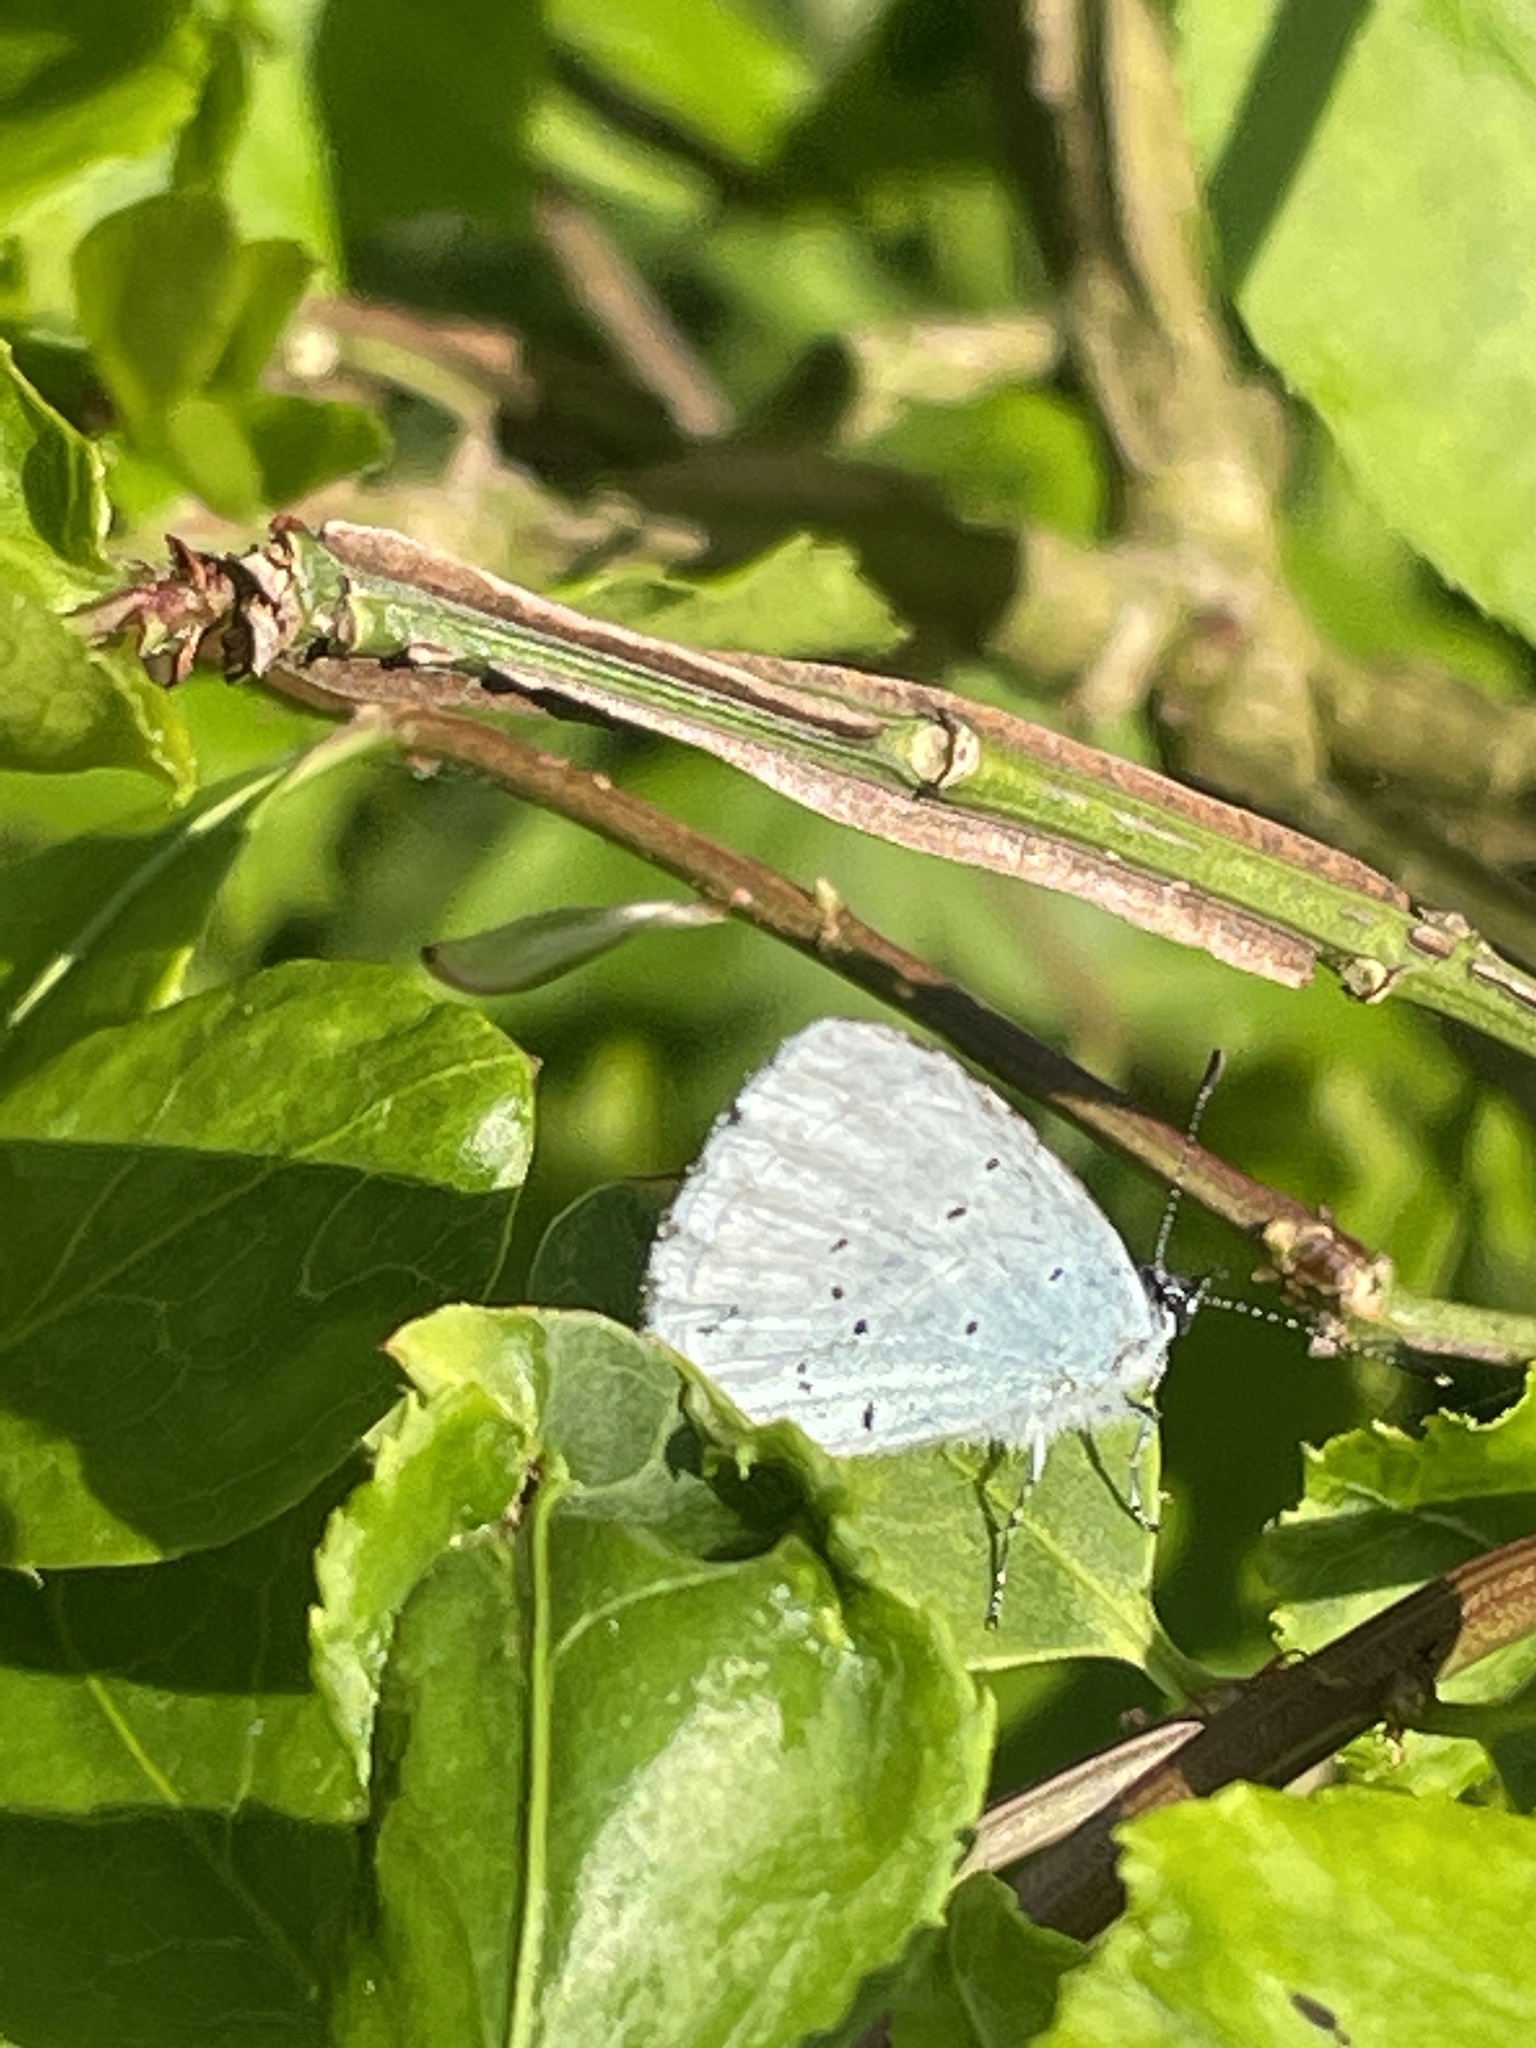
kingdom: Animalia
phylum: Arthropoda
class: Insecta
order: Lepidoptera
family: Lycaenidae
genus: Celastrina
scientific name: Celastrina argiolus
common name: Holly blue
